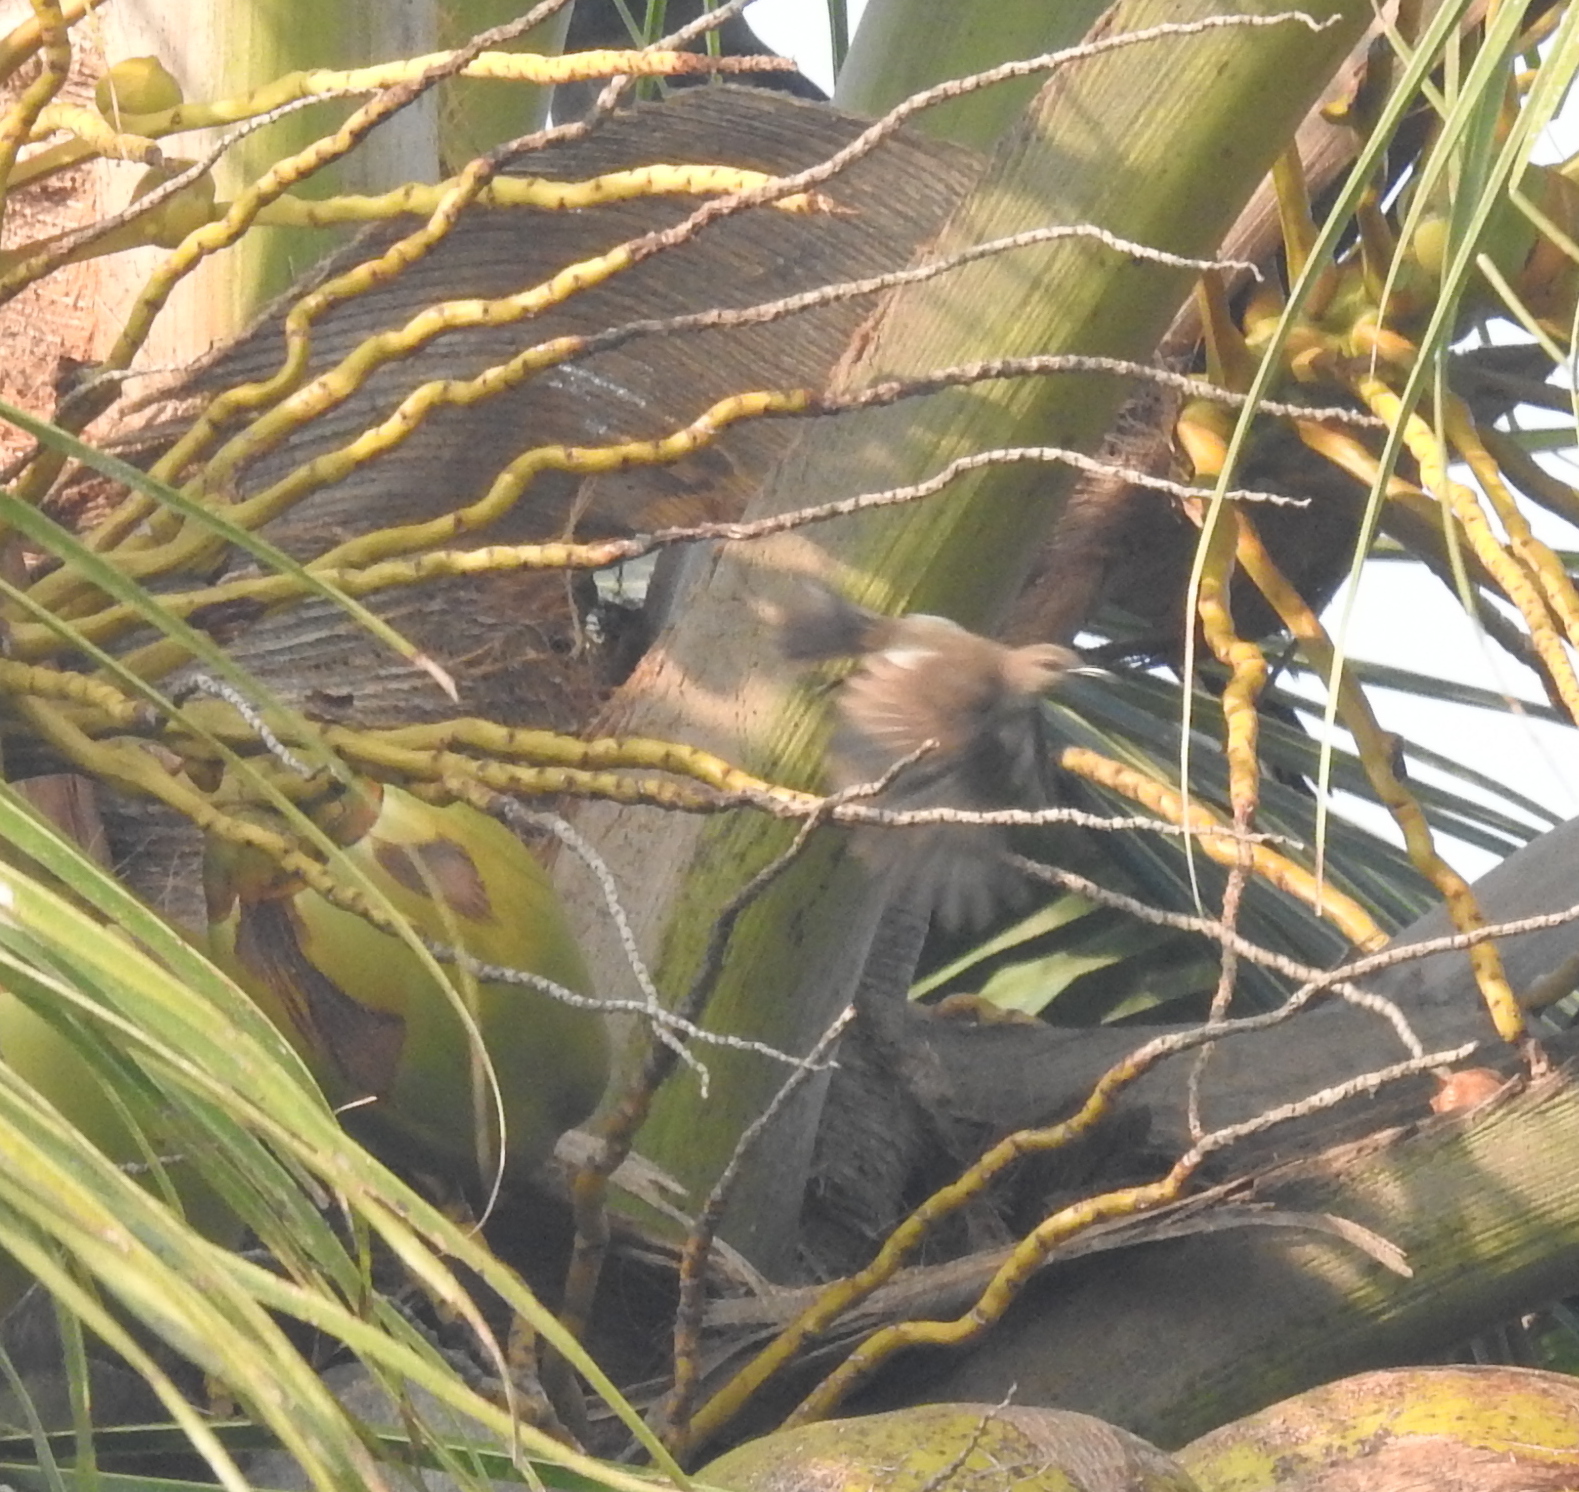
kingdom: Animalia
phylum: Chordata
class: Aves
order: Passeriformes
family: Nectariniidae
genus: Cinnyris
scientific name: Cinnyris lotenius
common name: Loten's sunbird
